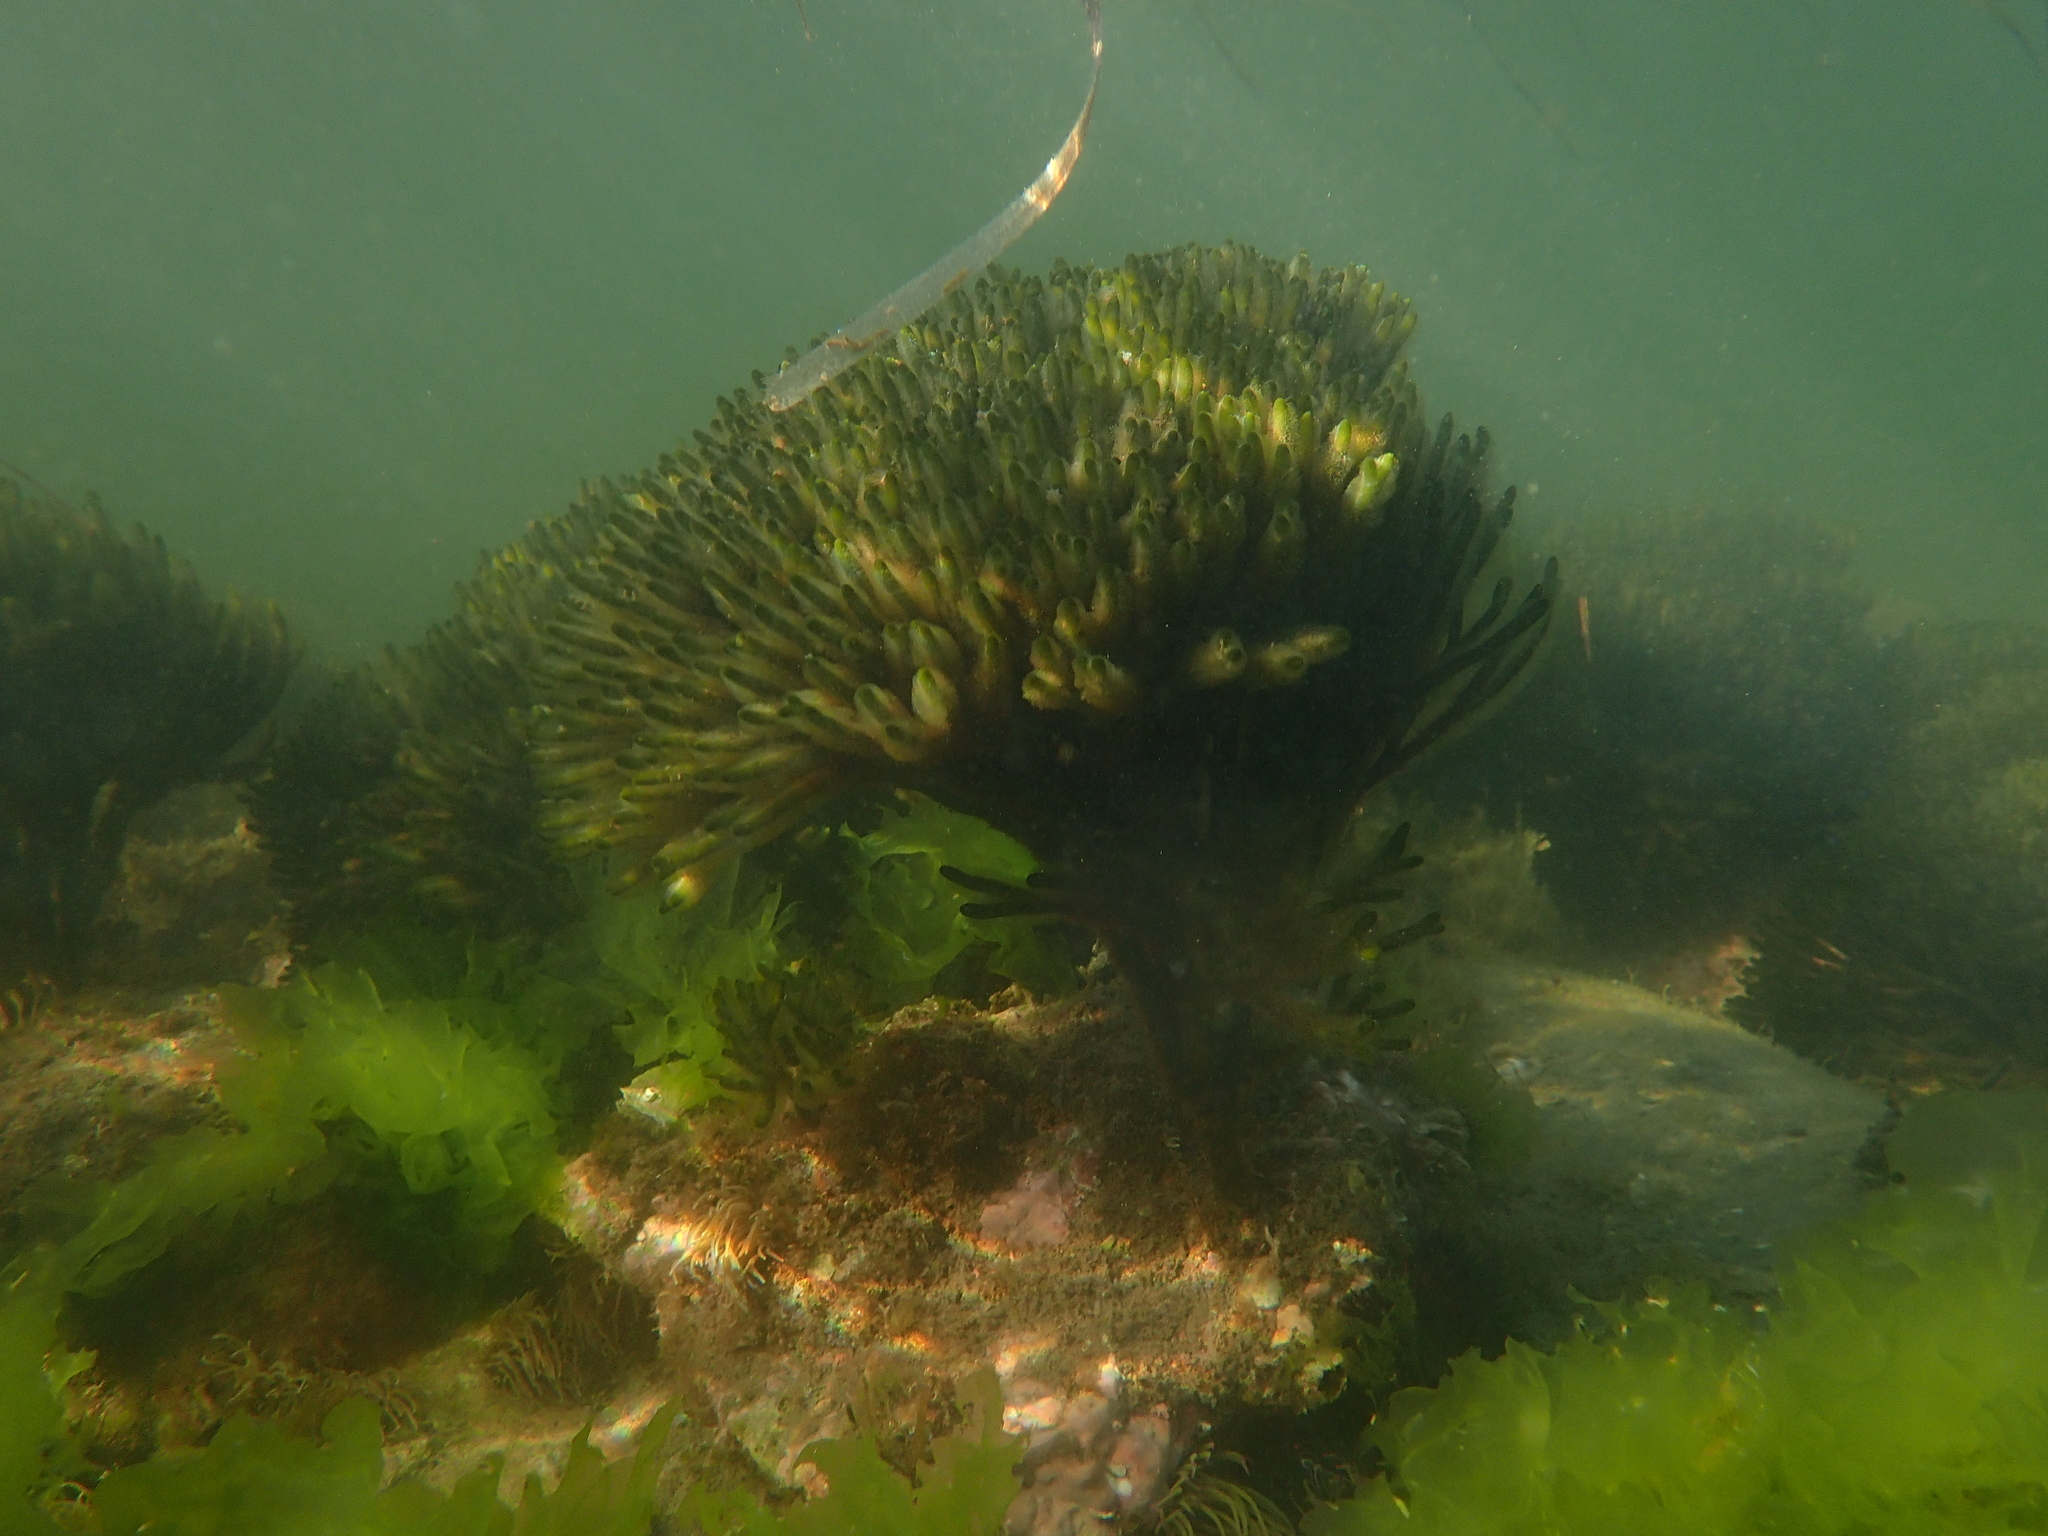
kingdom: Plantae
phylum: Chlorophyta
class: Ulvophyceae
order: Bryopsidales
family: Codiaceae
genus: Codium
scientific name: Codium fragile
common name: Dead man's fingers
